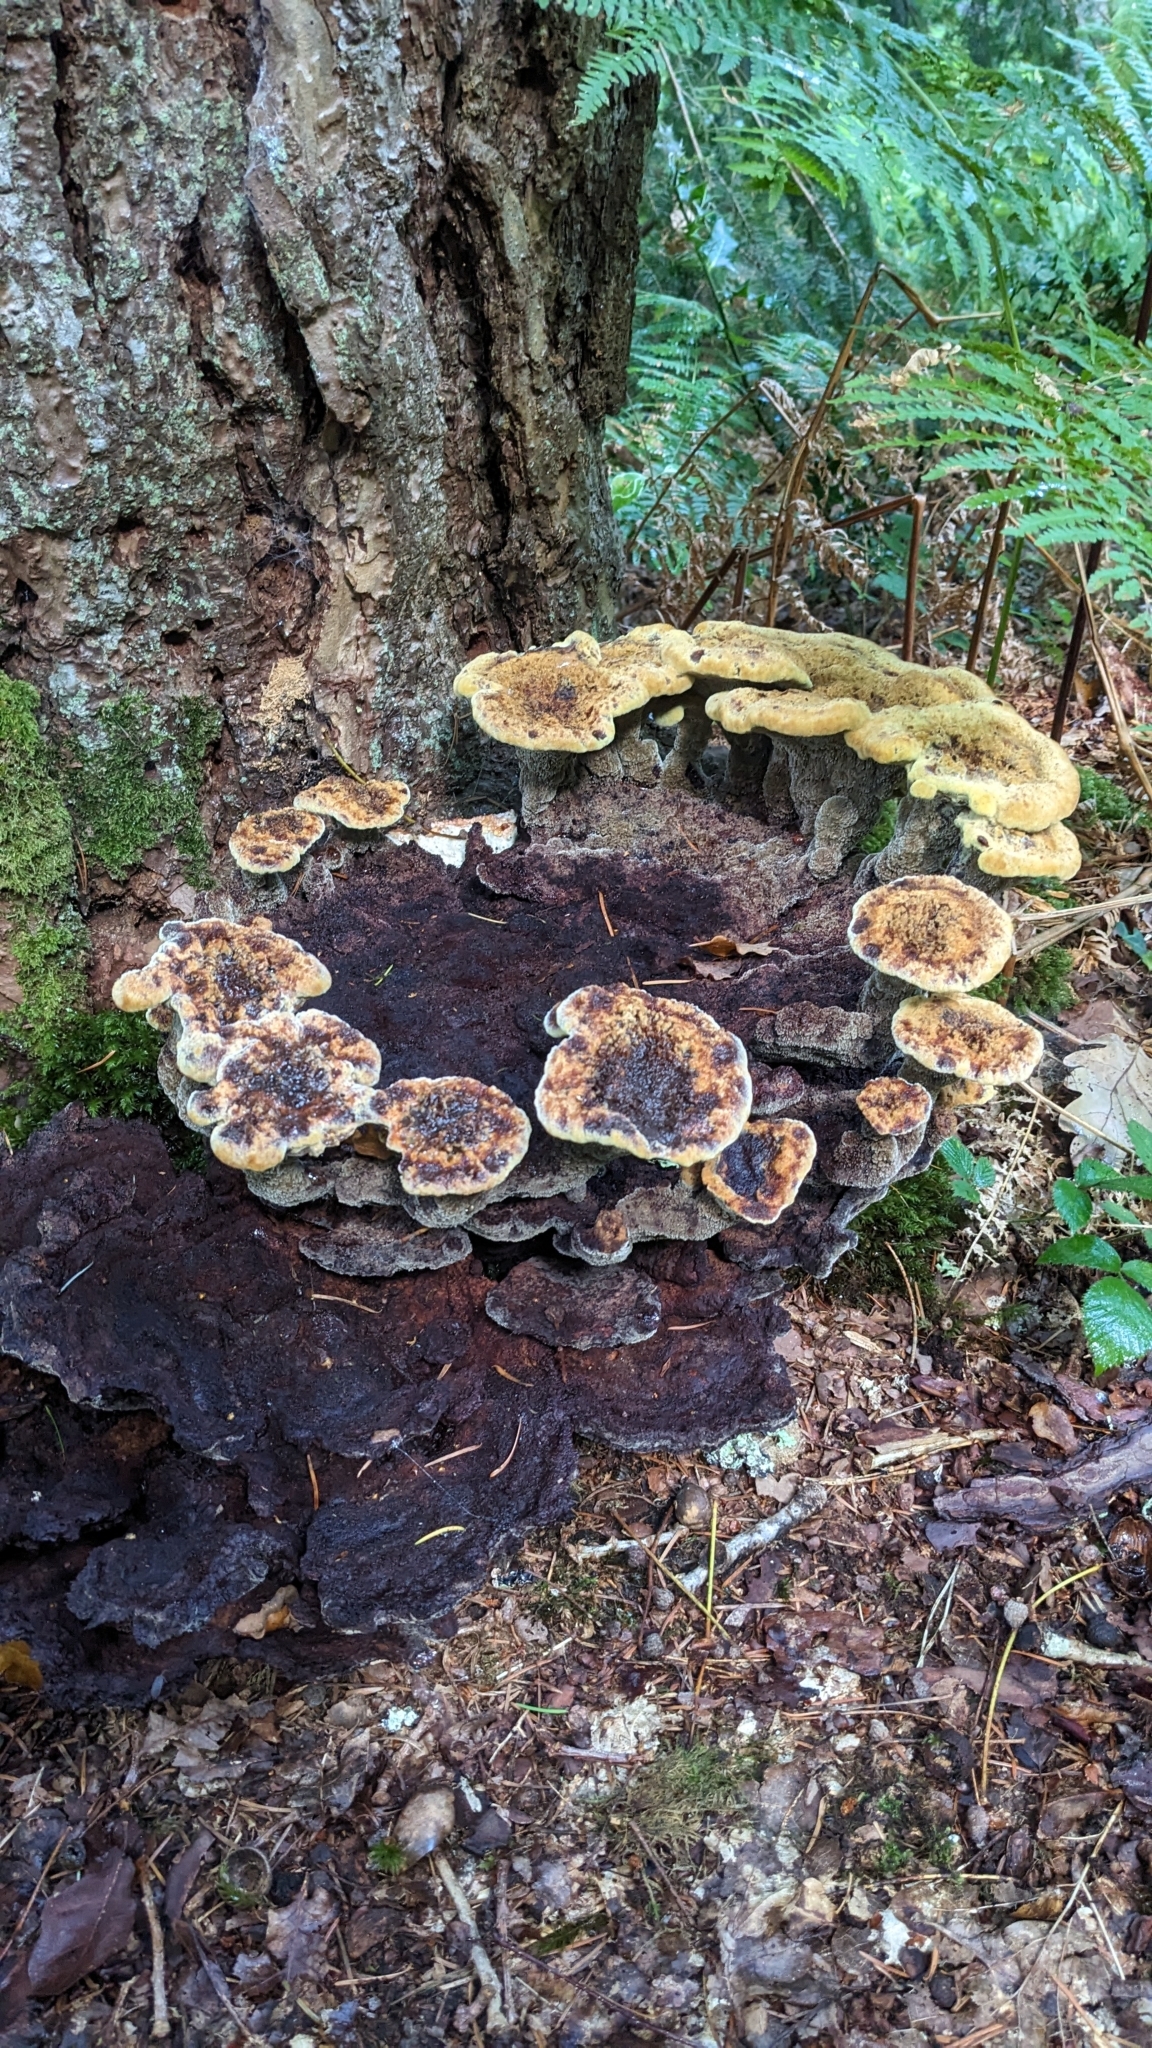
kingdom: Fungi
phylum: Basidiomycota
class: Agaricomycetes
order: Polyporales
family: Laetiporaceae
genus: Phaeolus
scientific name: Phaeolus schweinitzii
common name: Dyer's mazegill
